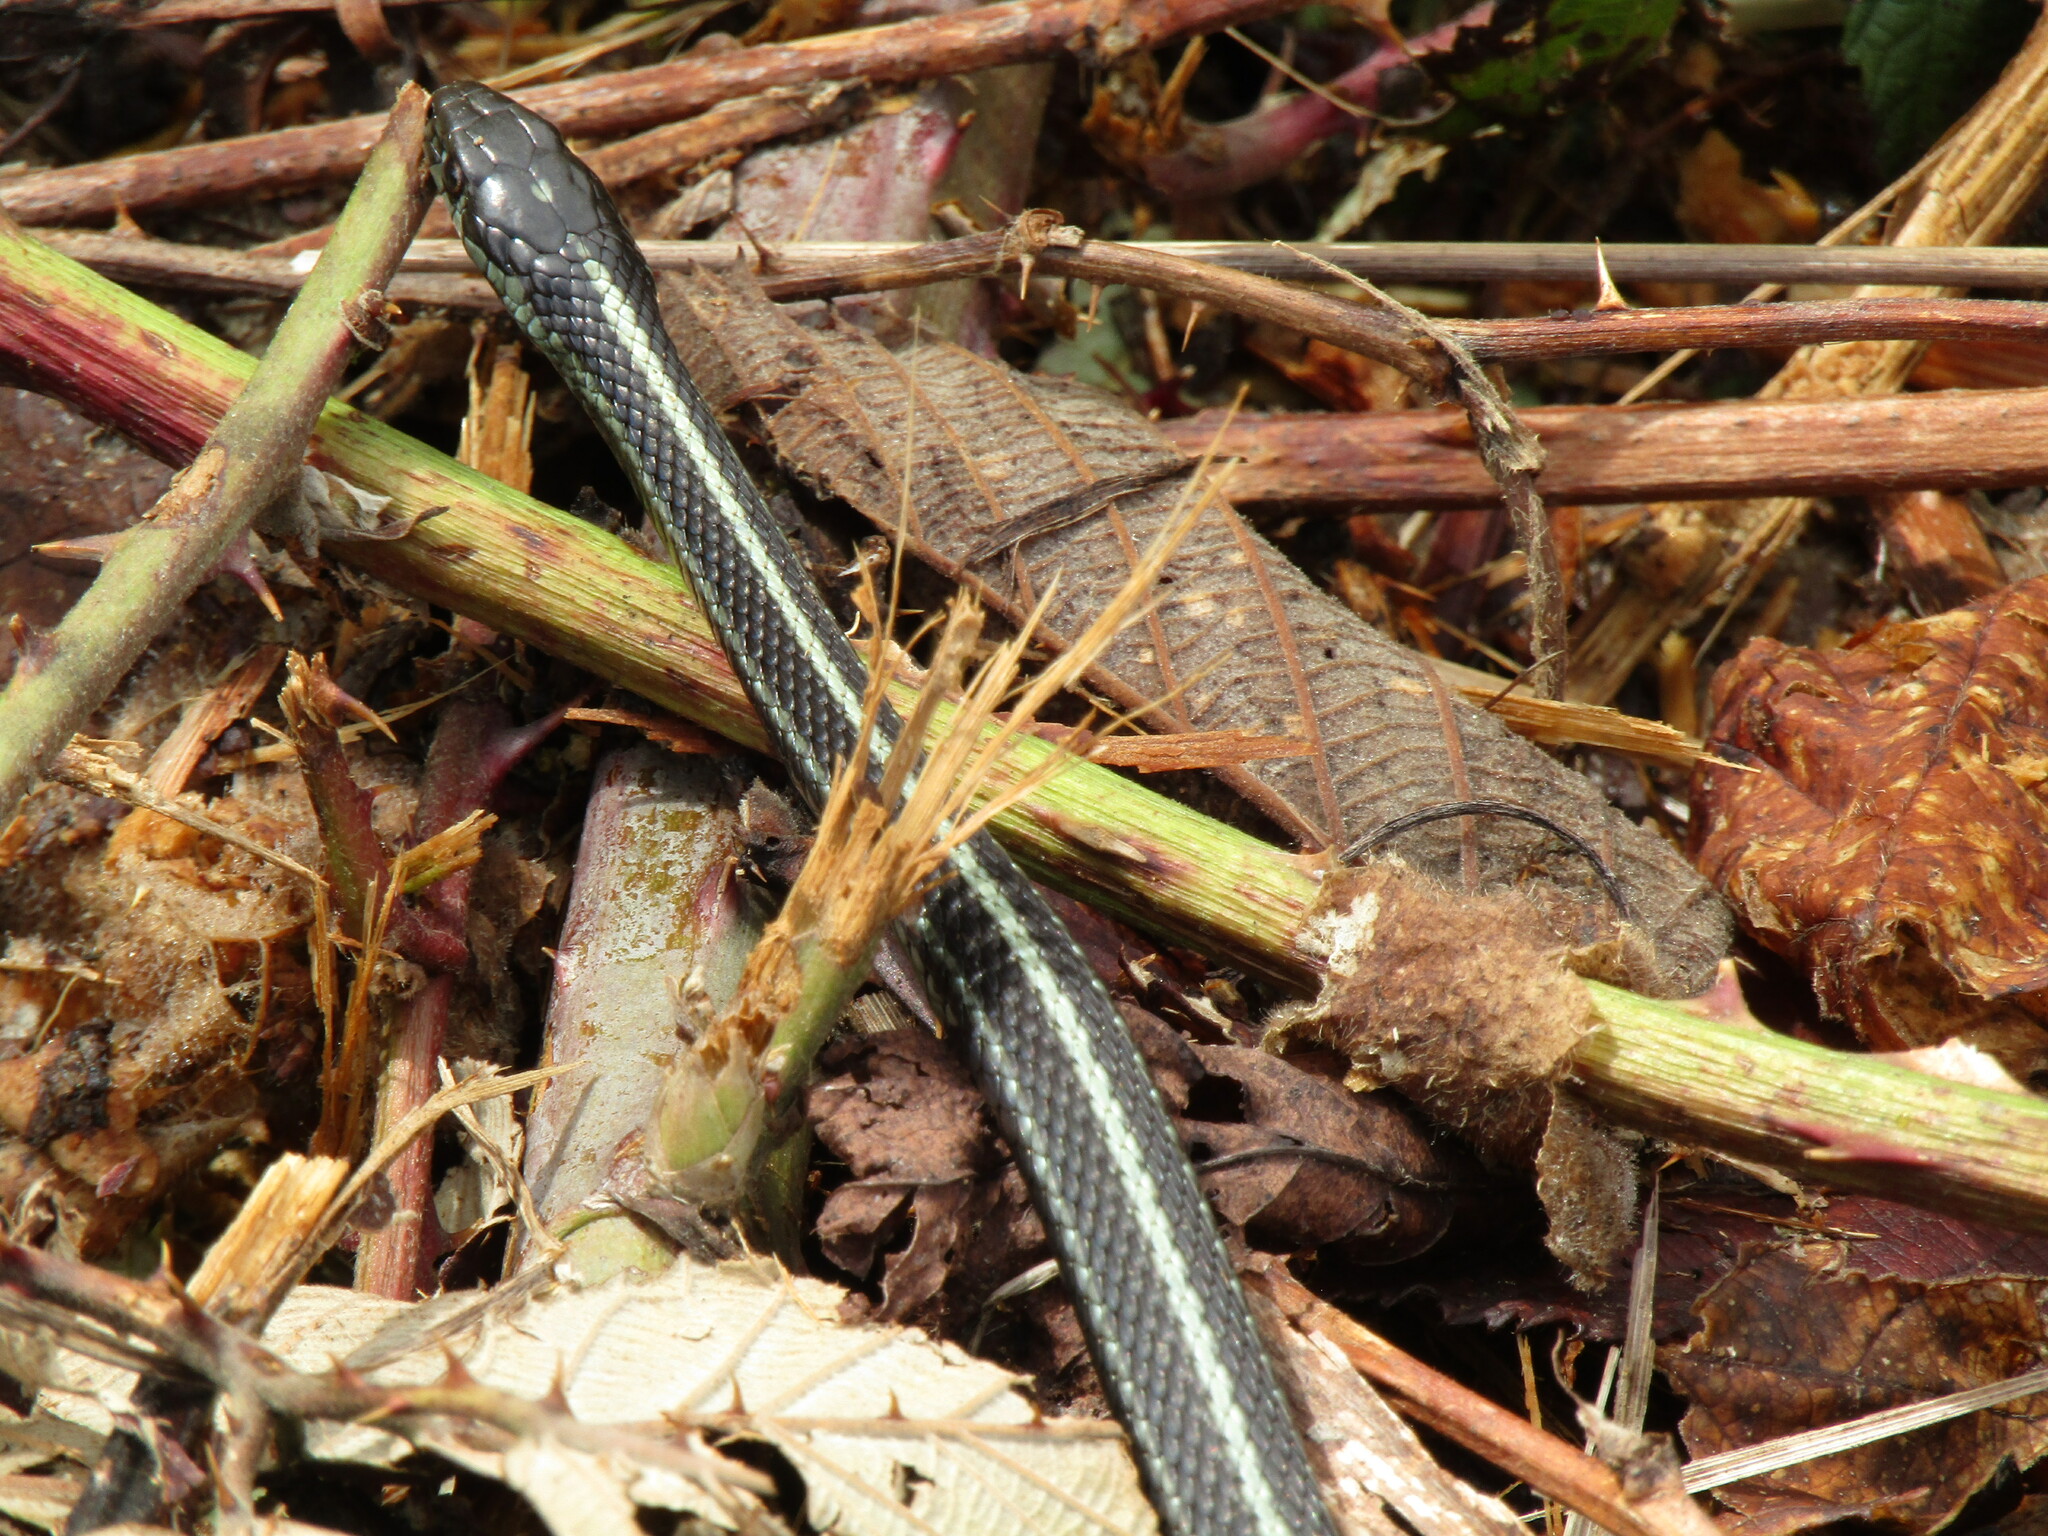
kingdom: Animalia
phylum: Chordata
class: Squamata
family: Colubridae
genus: Thamnophis
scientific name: Thamnophis ordinoides
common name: Northwestern garter snake
